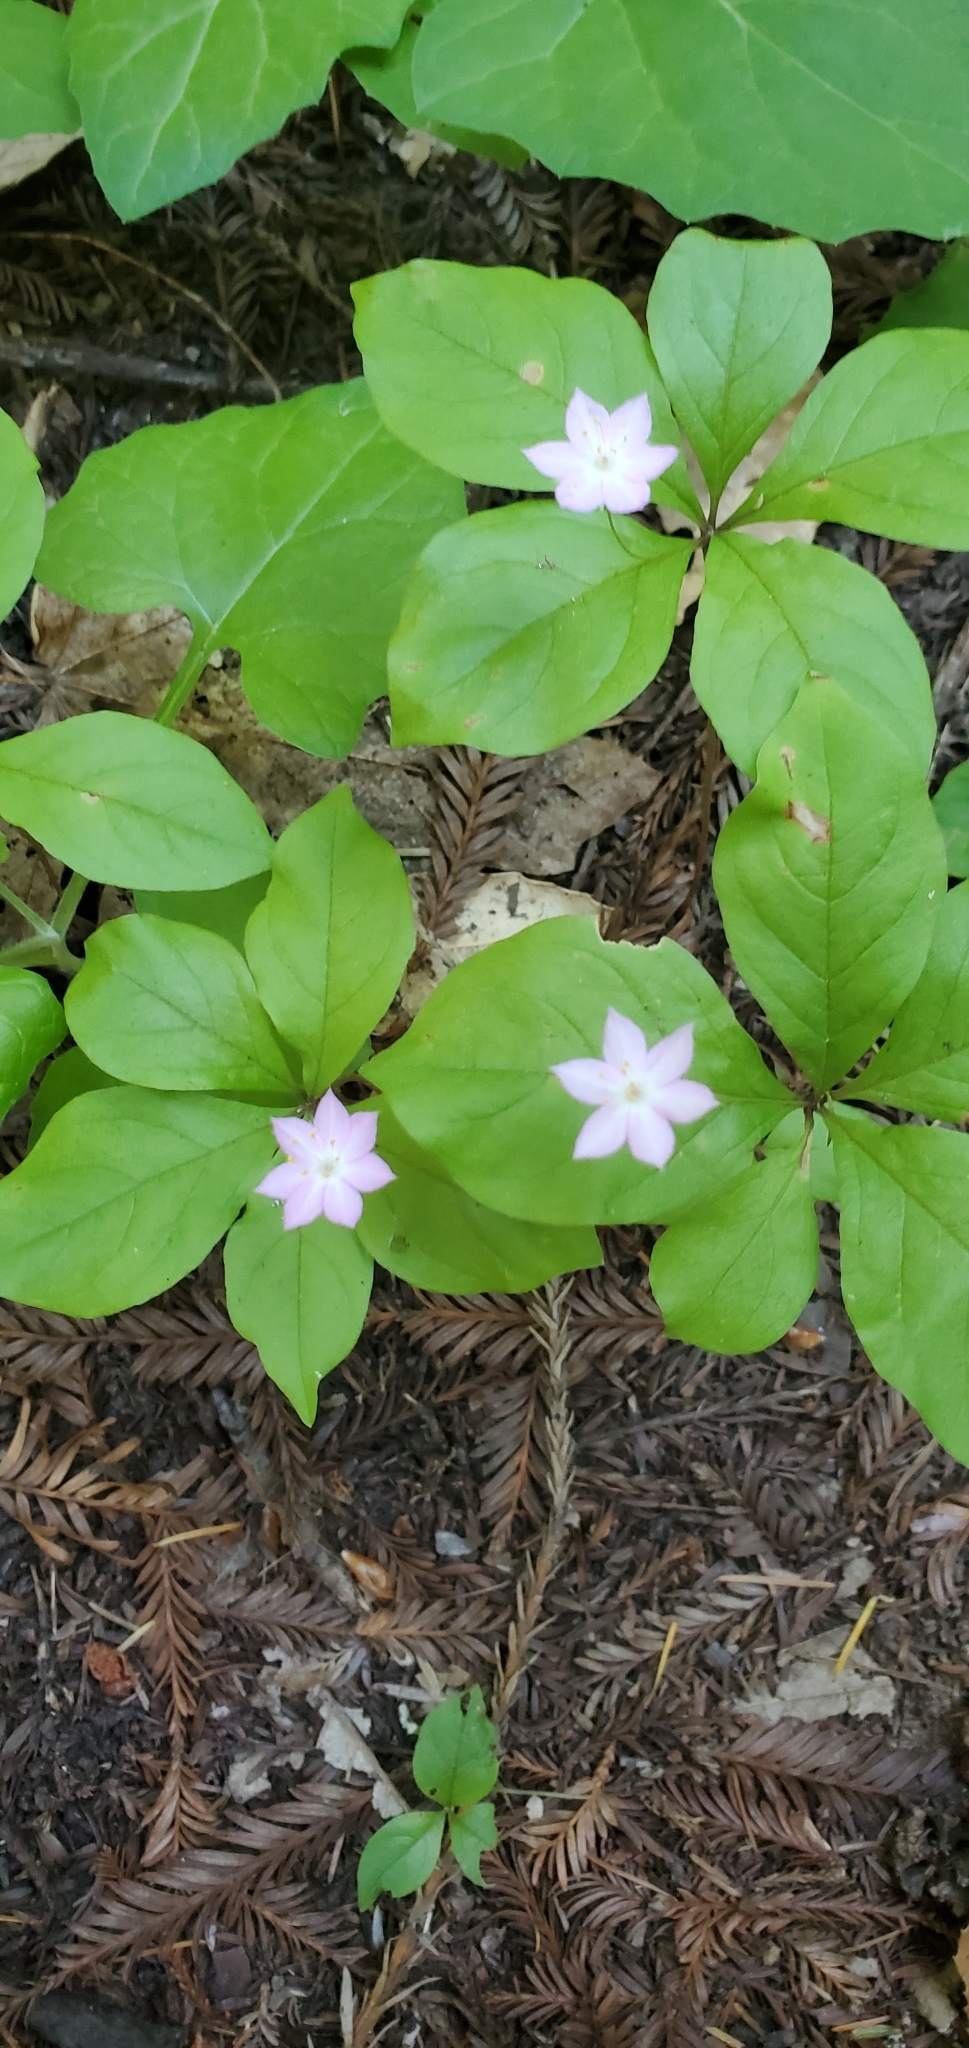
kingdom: Plantae
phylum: Tracheophyta
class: Magnoliopsida
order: Ericales
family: Primulaceae
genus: Lysimachia
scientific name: Lysimachia latifolia
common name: Pacific starflower
